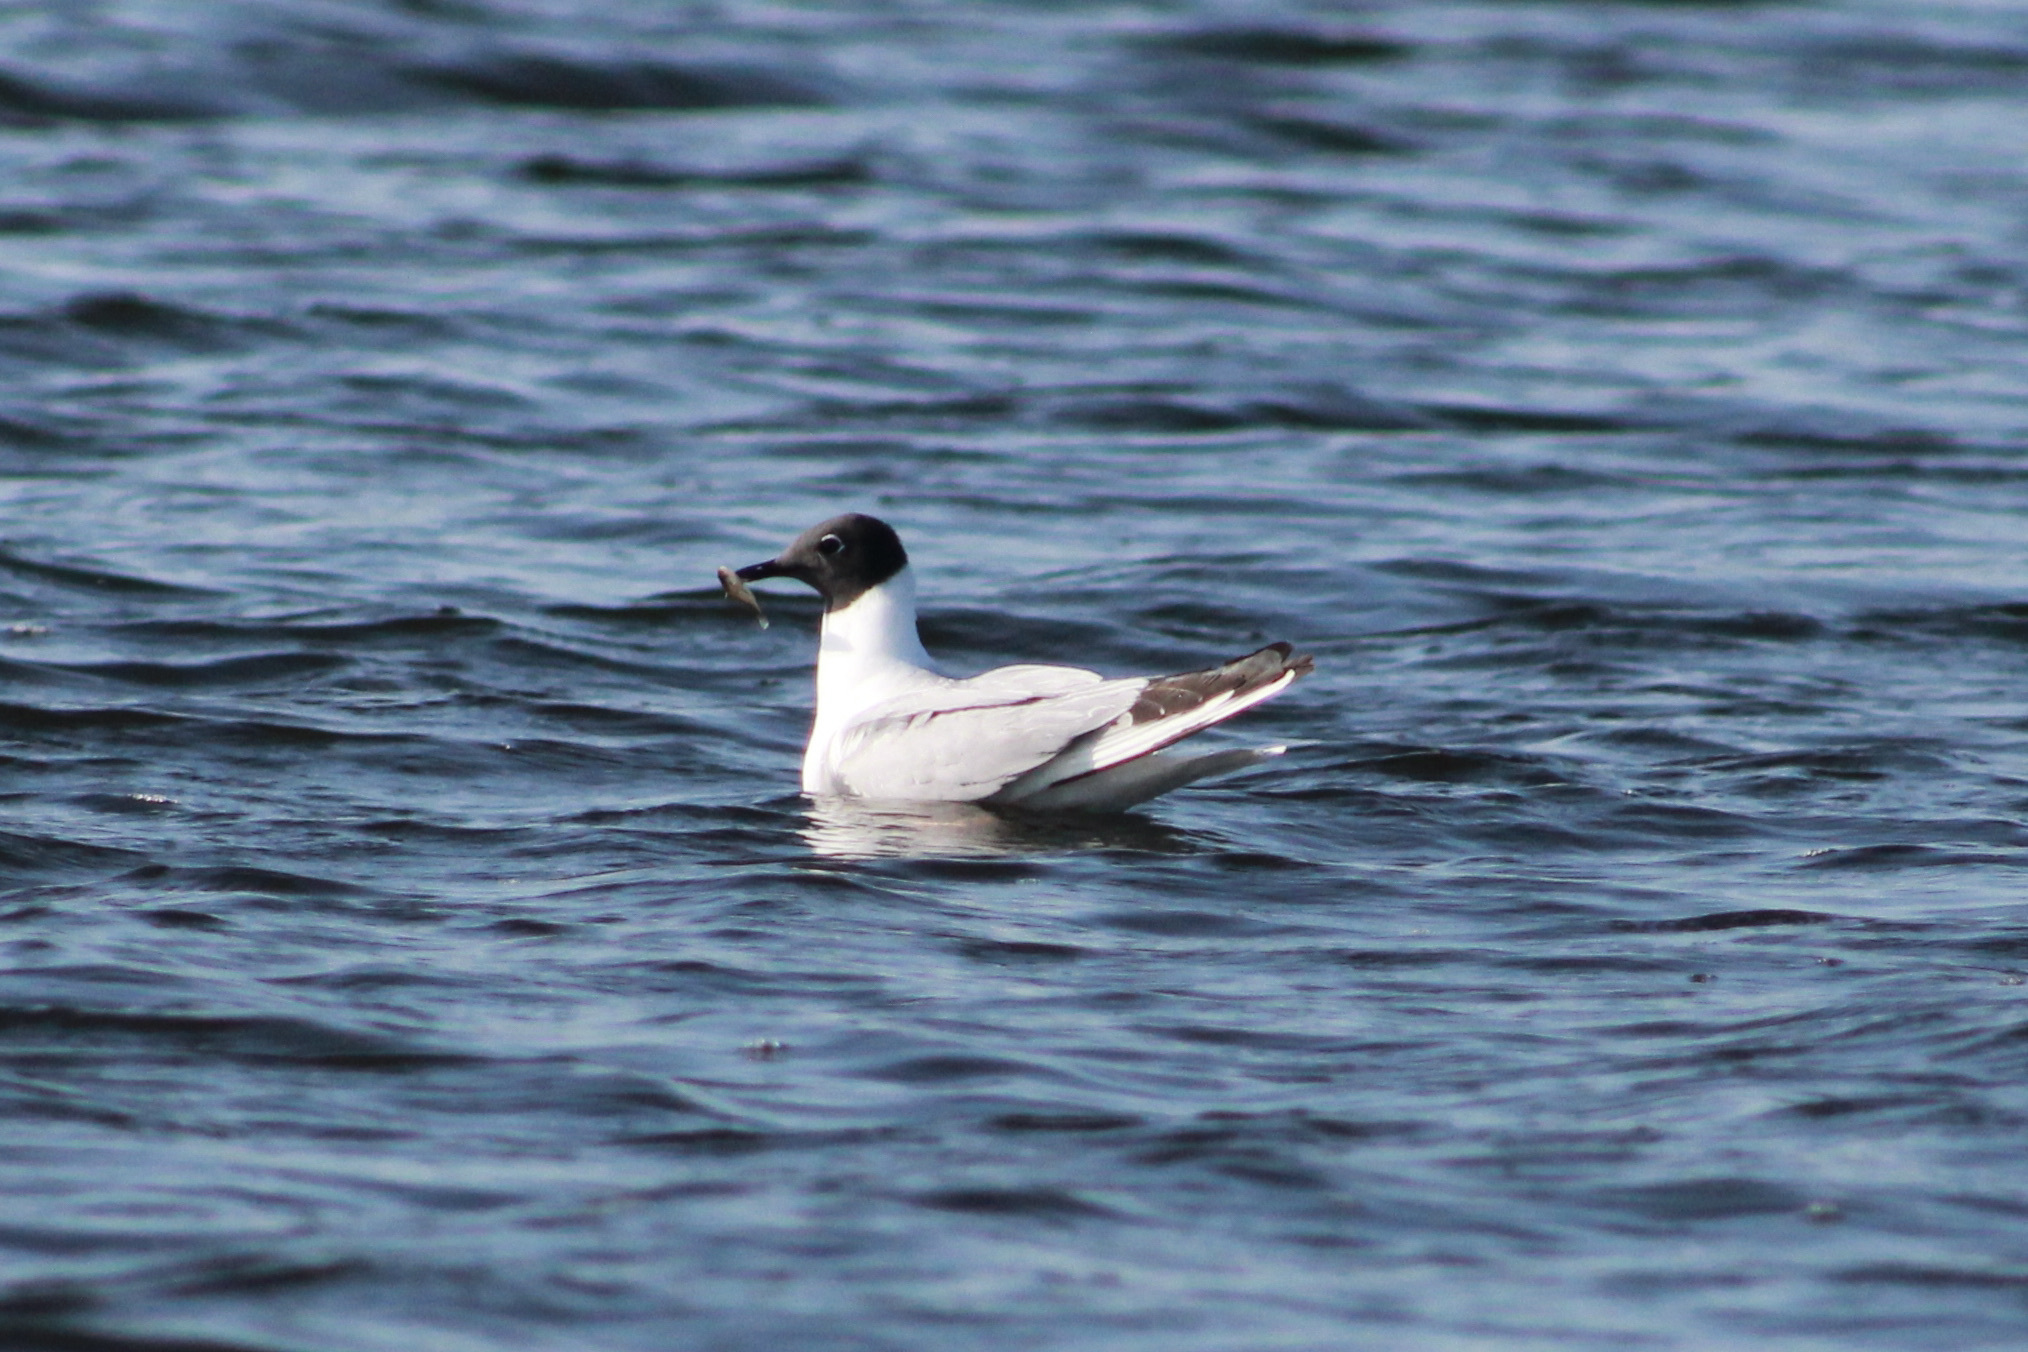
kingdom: Animalia
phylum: Chordata
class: Aves
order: Charadriiformes
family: Laridae
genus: Chroicocephalus
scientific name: Chroicocephalus philadelphia
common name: Bonaparte's gull
